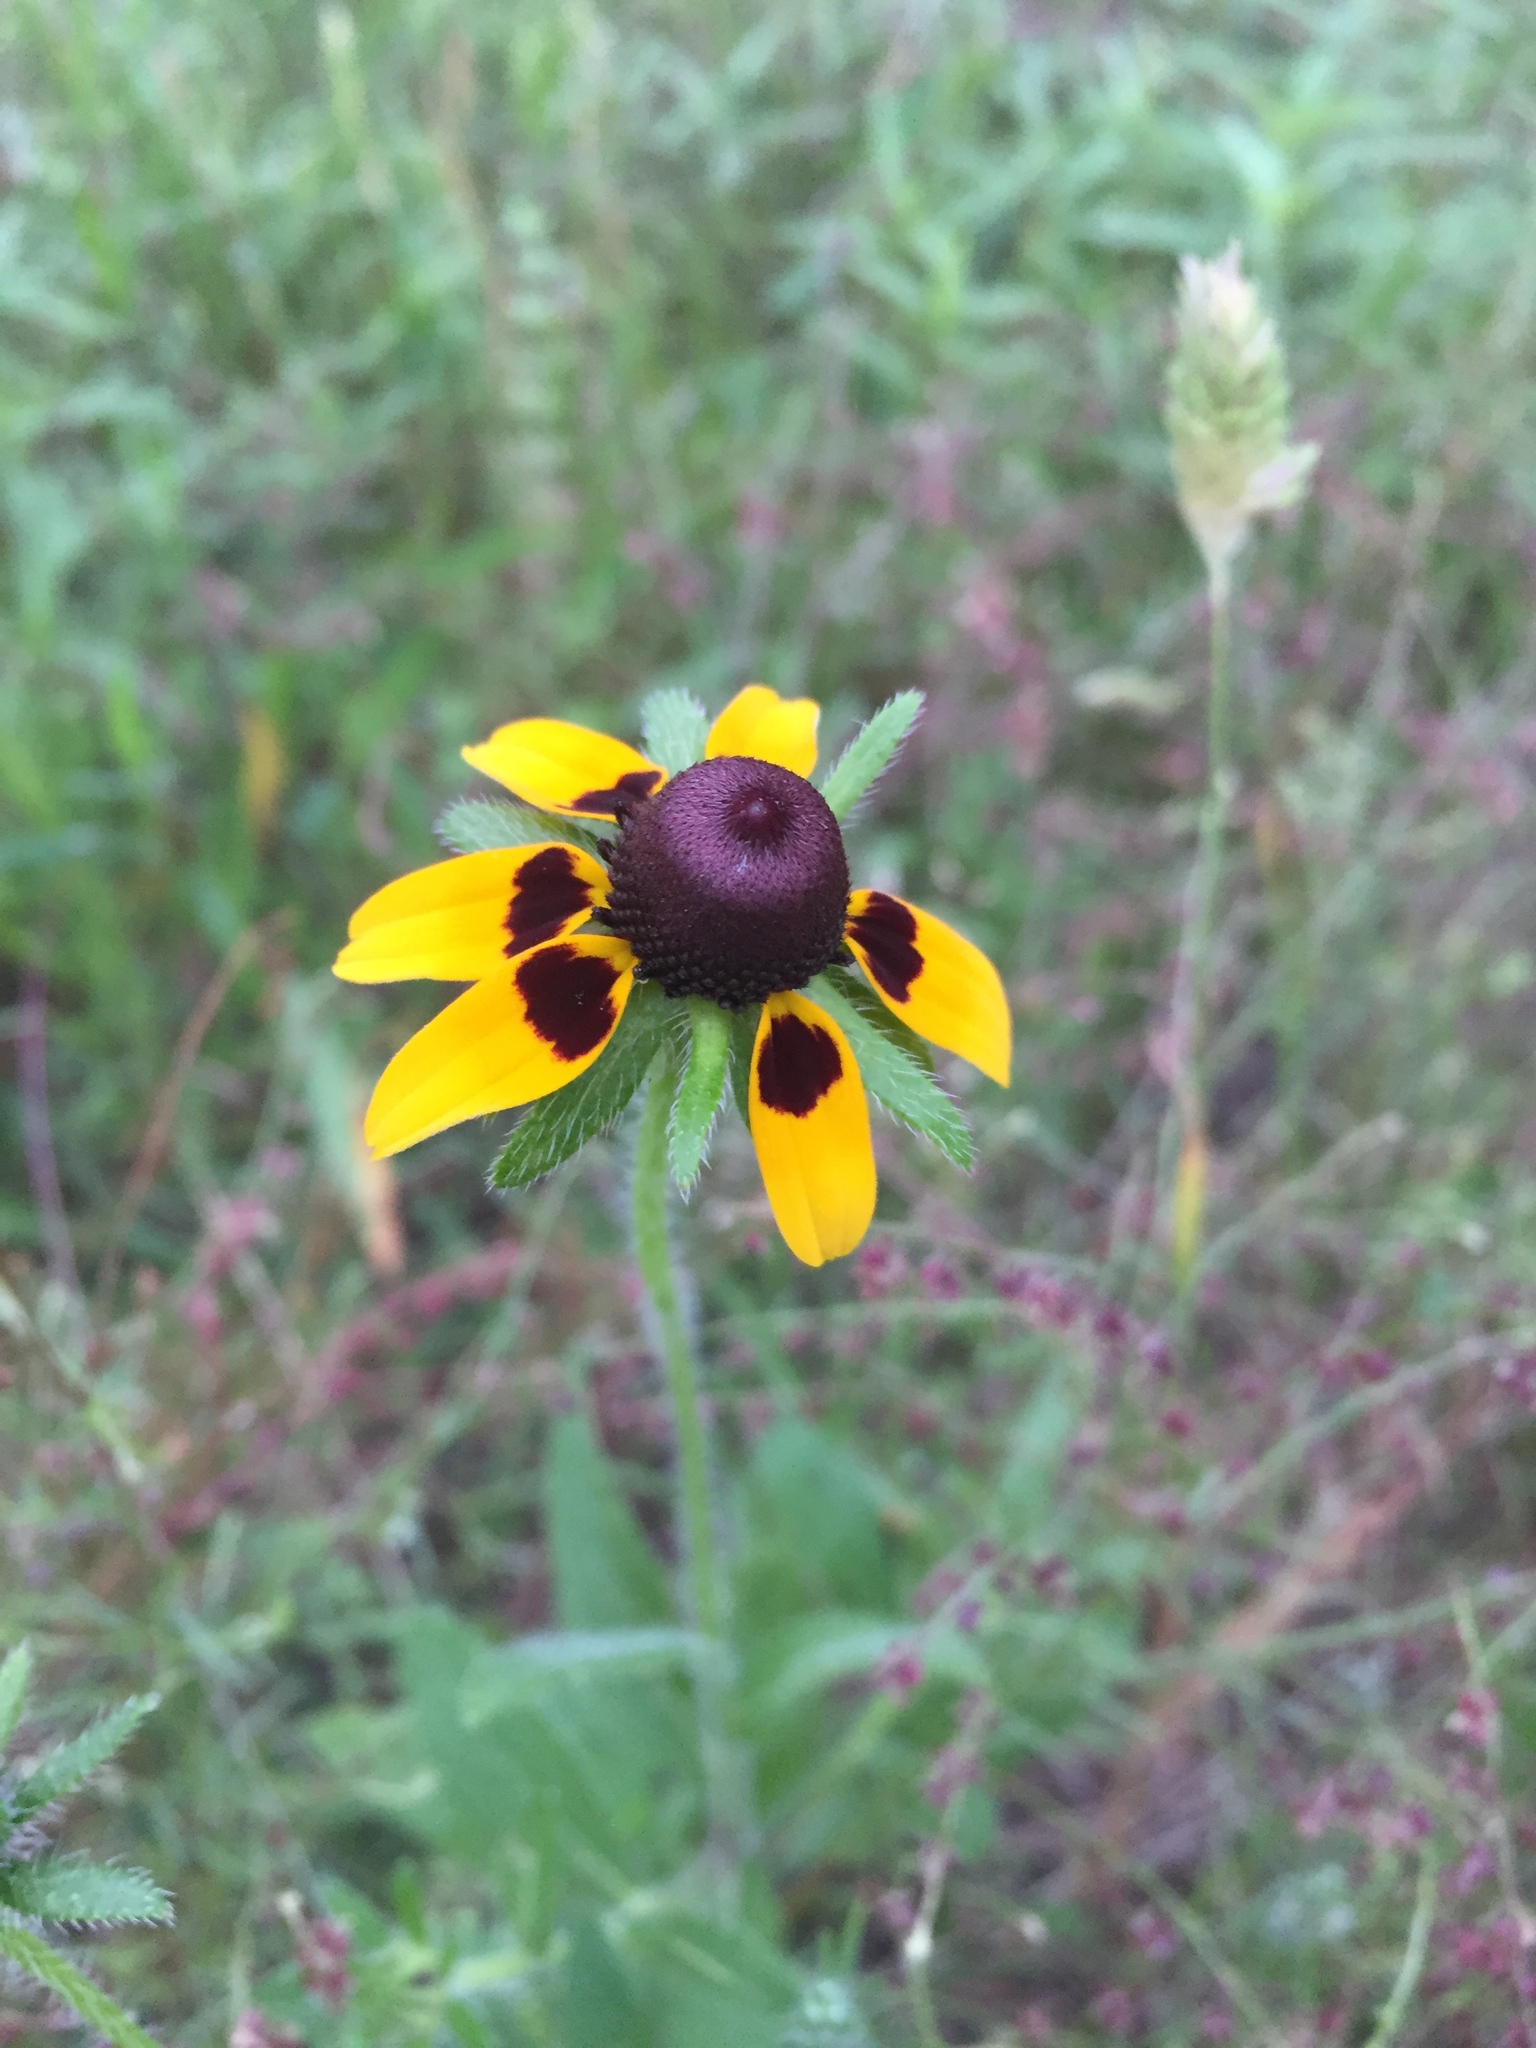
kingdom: Plantae
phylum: Tracheophyta
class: Magnoliopsida
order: Asterales
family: Asteraceae
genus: Rudbeckia
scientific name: Rudbeckia hirta
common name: Black-eyed-susan
